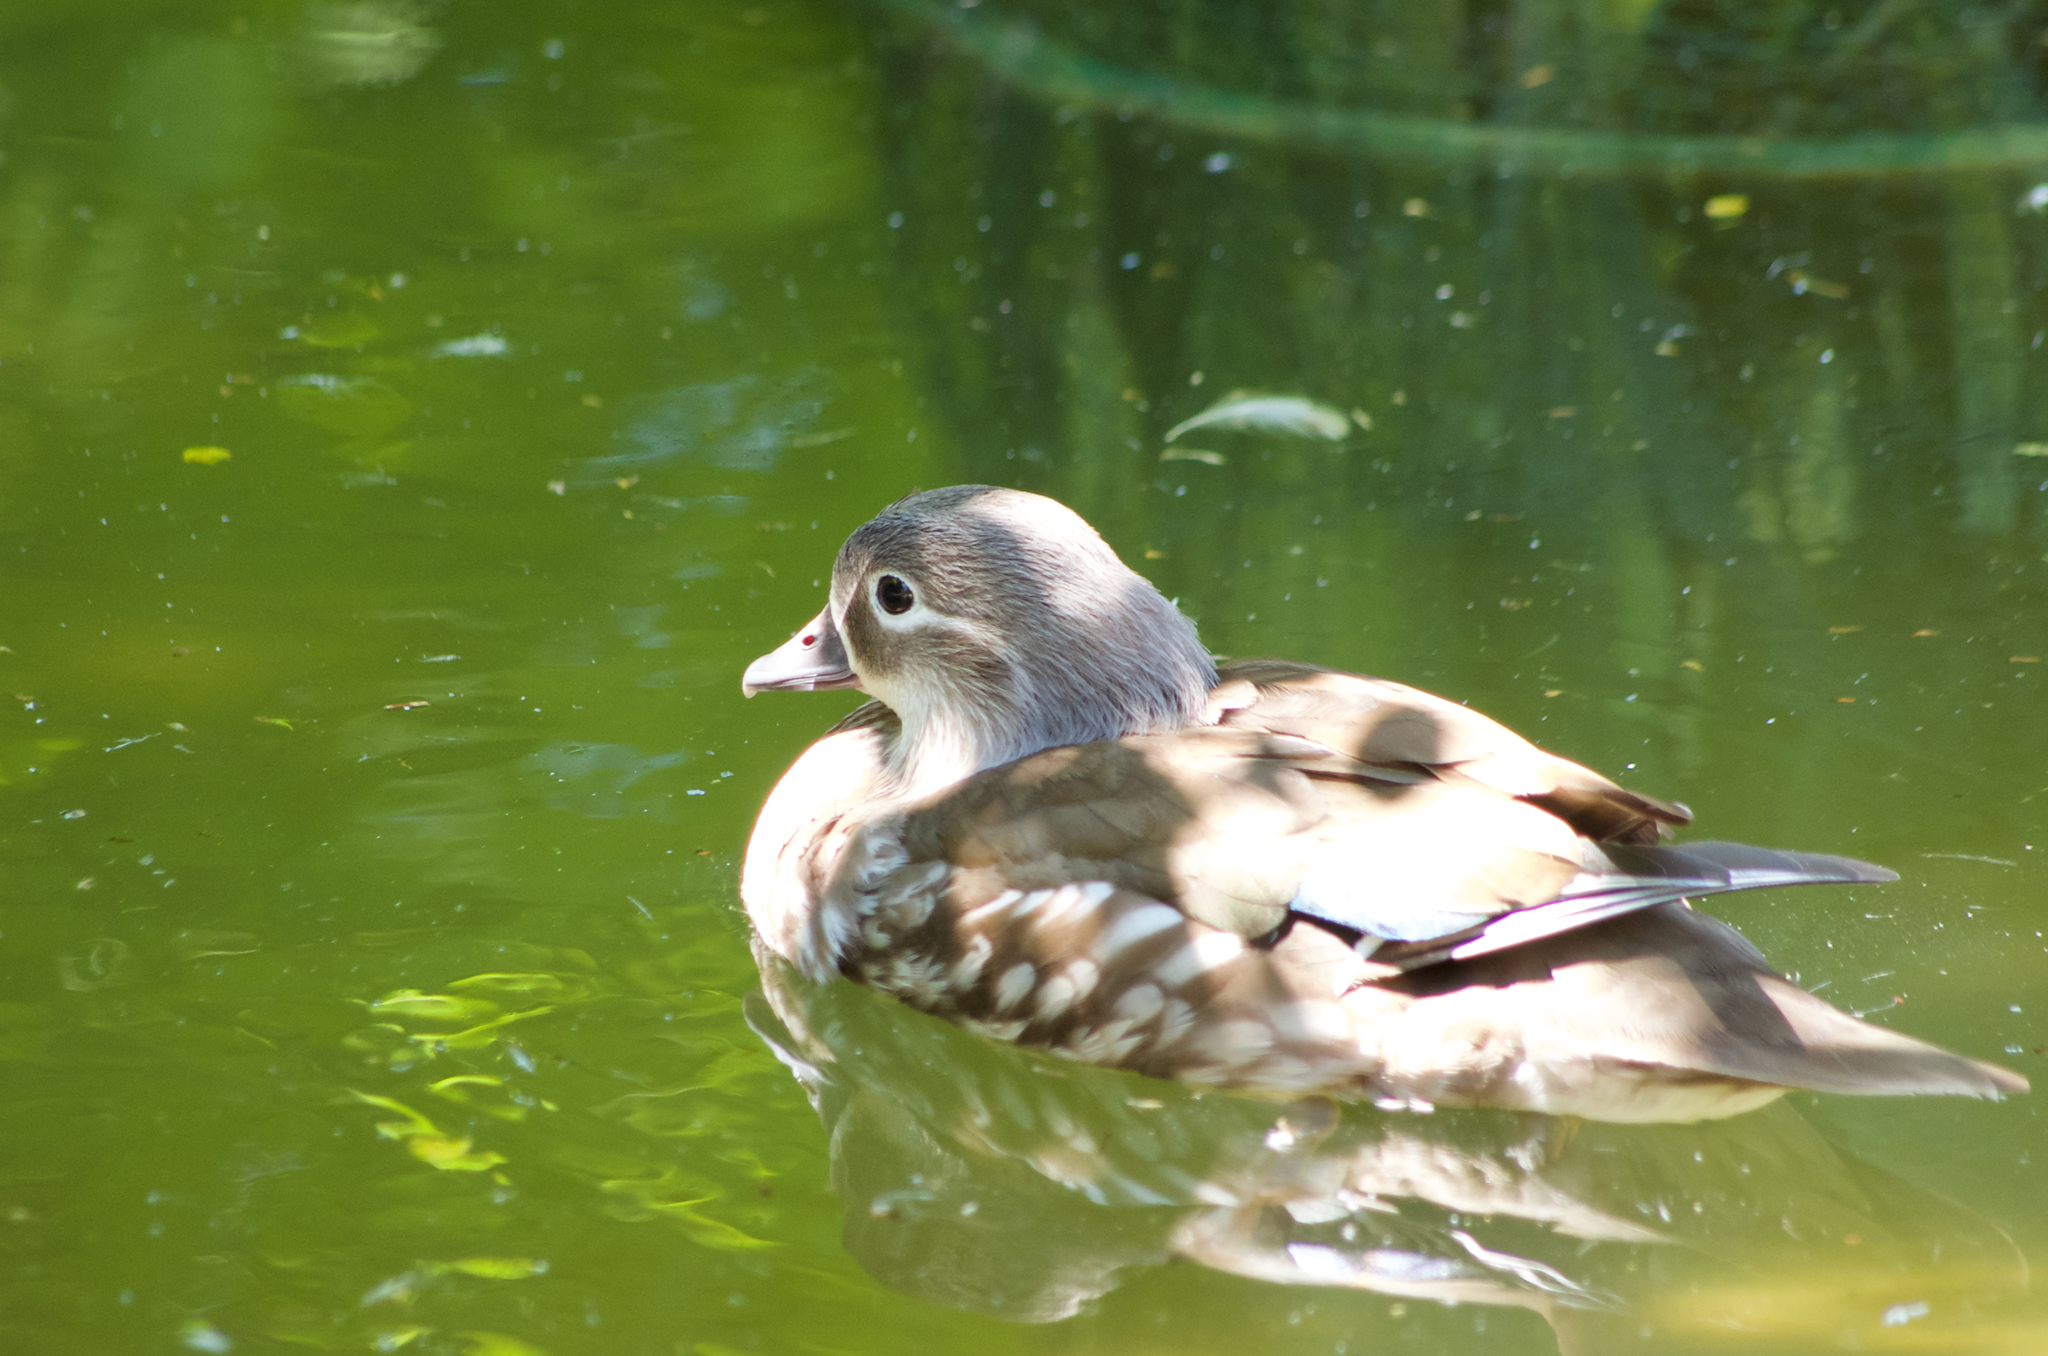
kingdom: Animalia
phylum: Chordata
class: Aves
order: Anseriformes
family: Anatidae
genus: Aix
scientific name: Aix galericulata
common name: Mandarin duck
